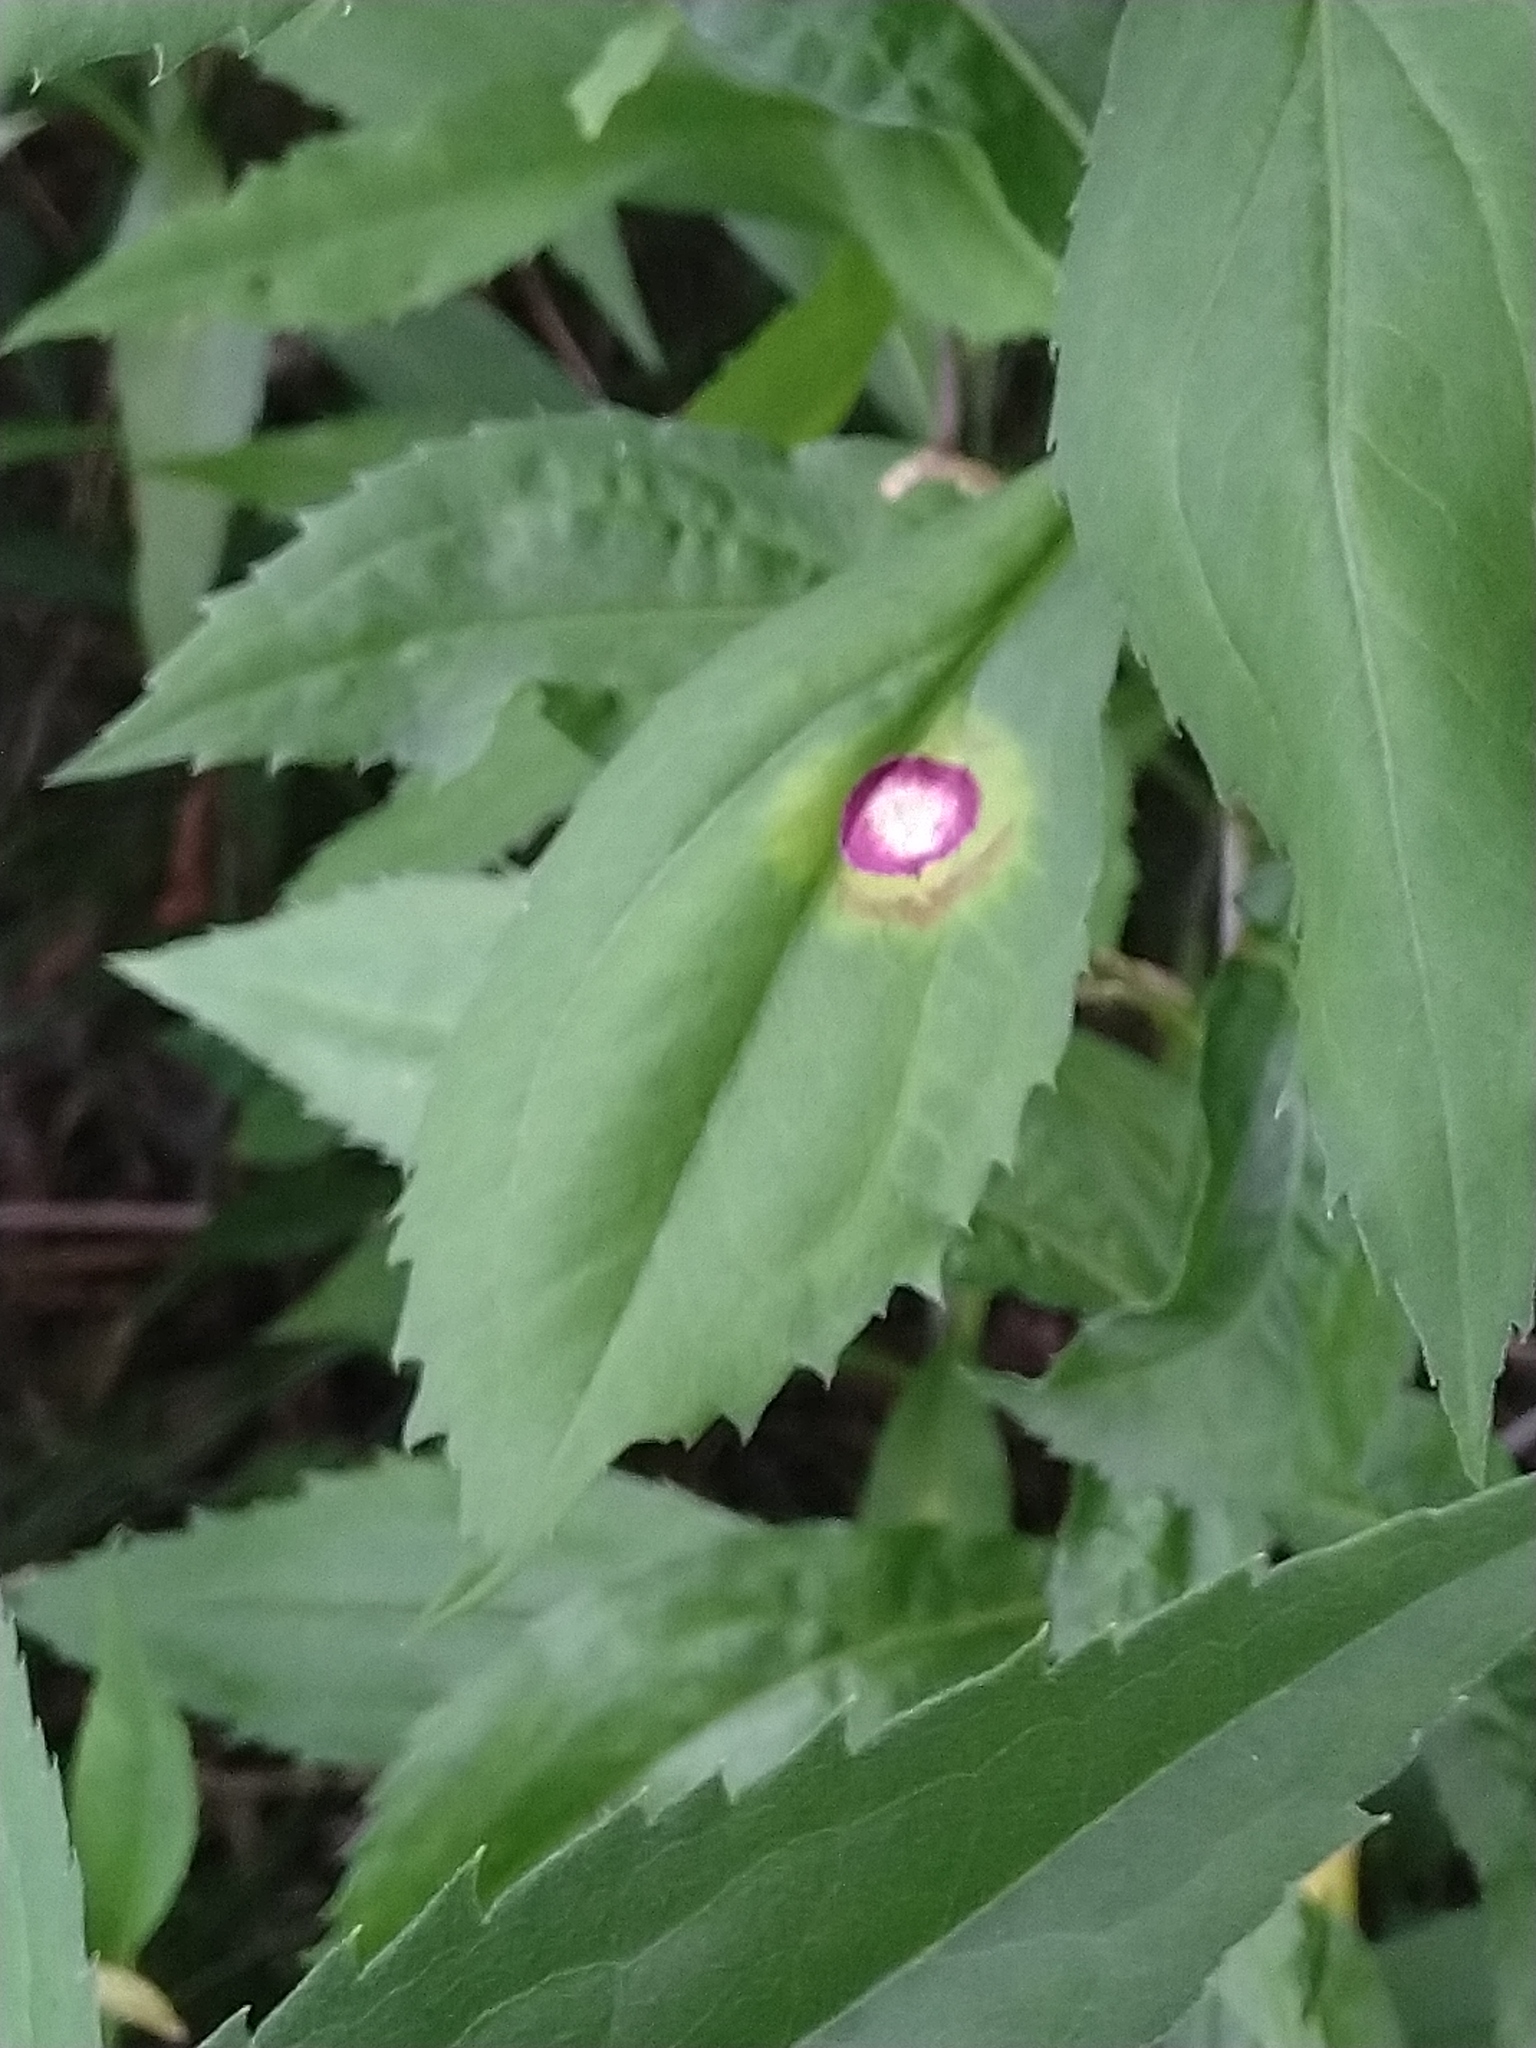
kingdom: Animalia
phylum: Arthropoda
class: Insecta
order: Diptera
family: Cecidomyiidae
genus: Asteromyia
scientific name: Asteromyia carbonifera
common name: Carbonifera goldenrod gall midge
